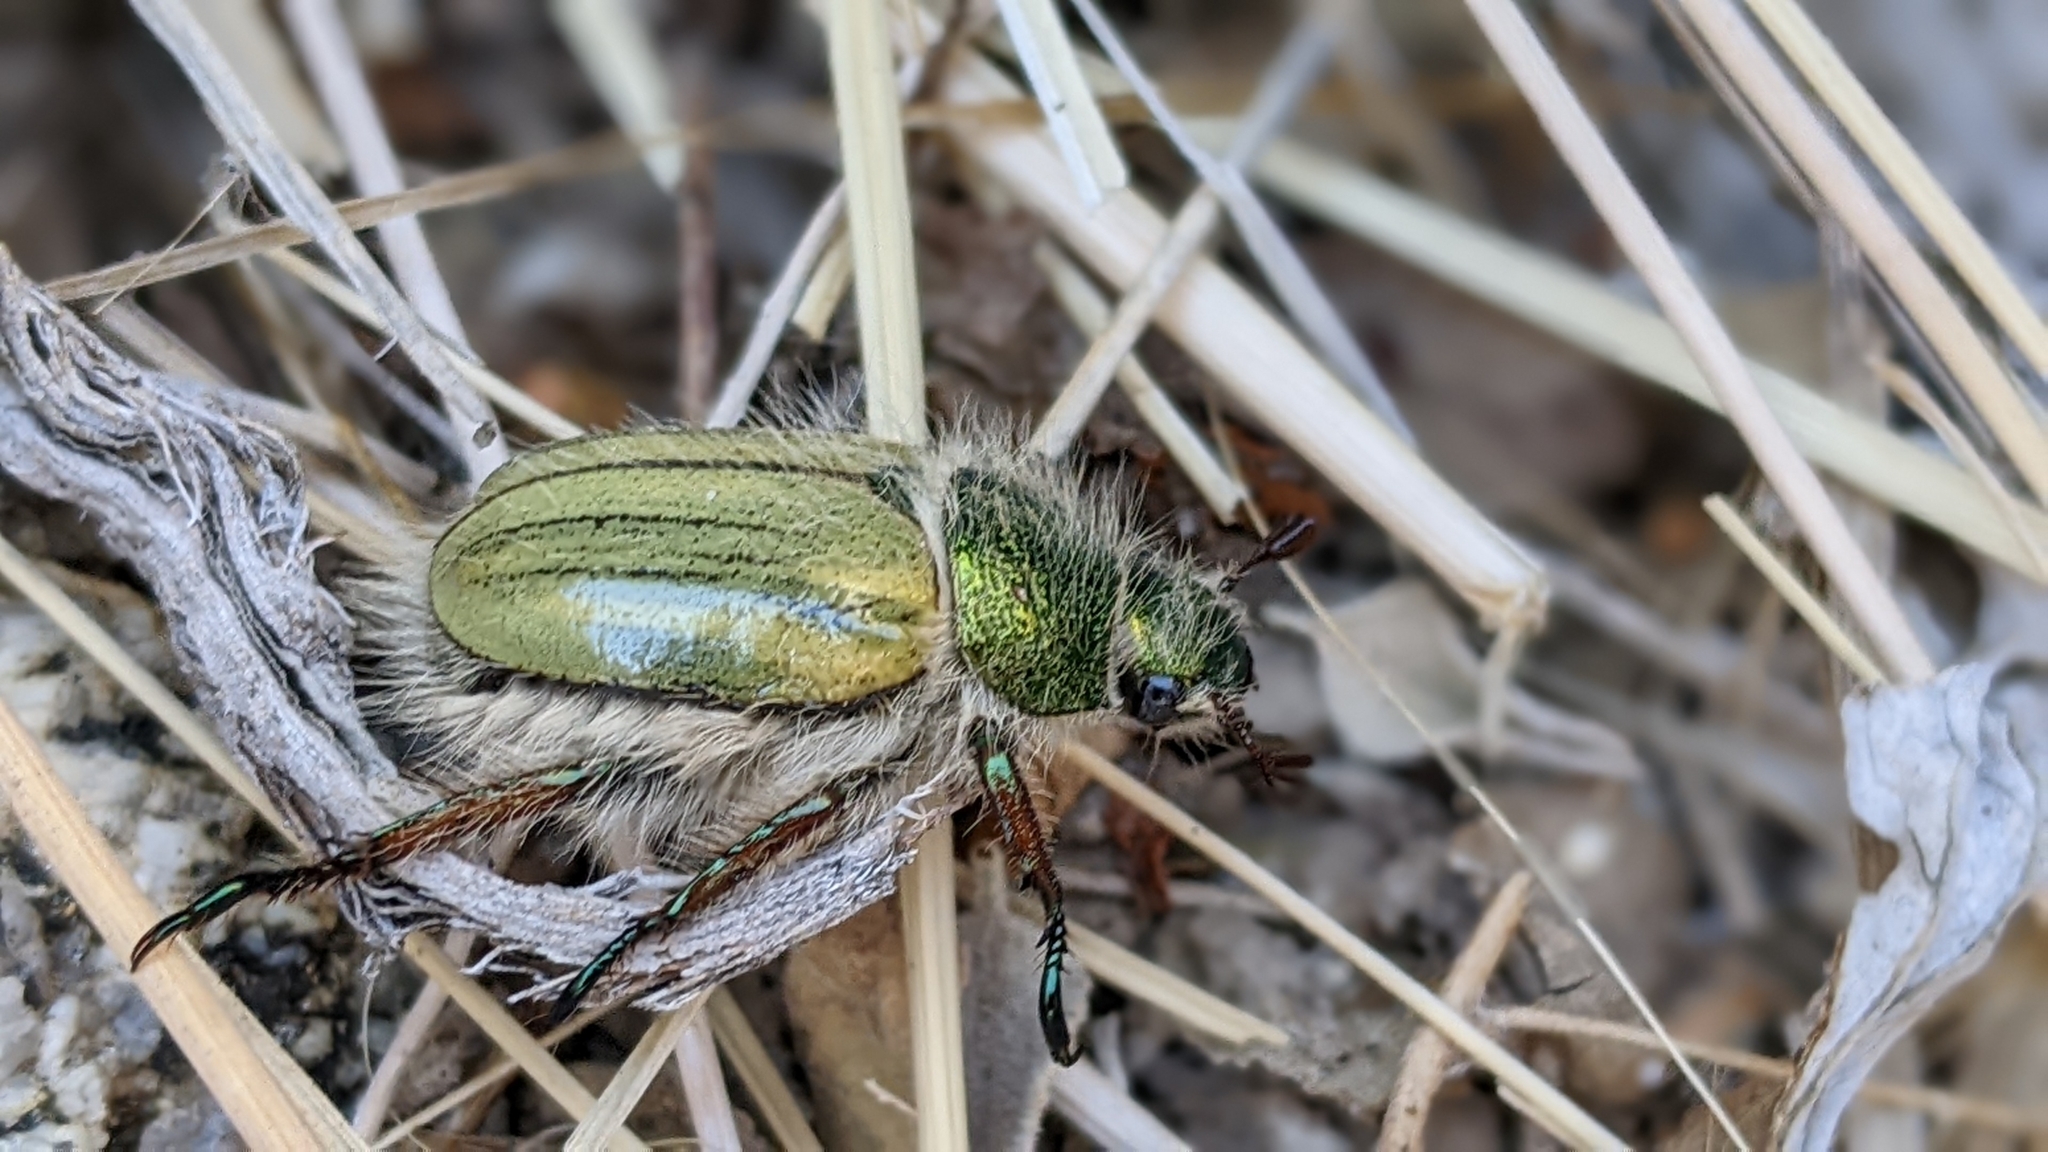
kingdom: Animalia
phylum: Arthropoda
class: Insecta
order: Coleoptera
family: Scarabaeidae
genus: Paracotalpa
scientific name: Paracotalpa puncticollis
